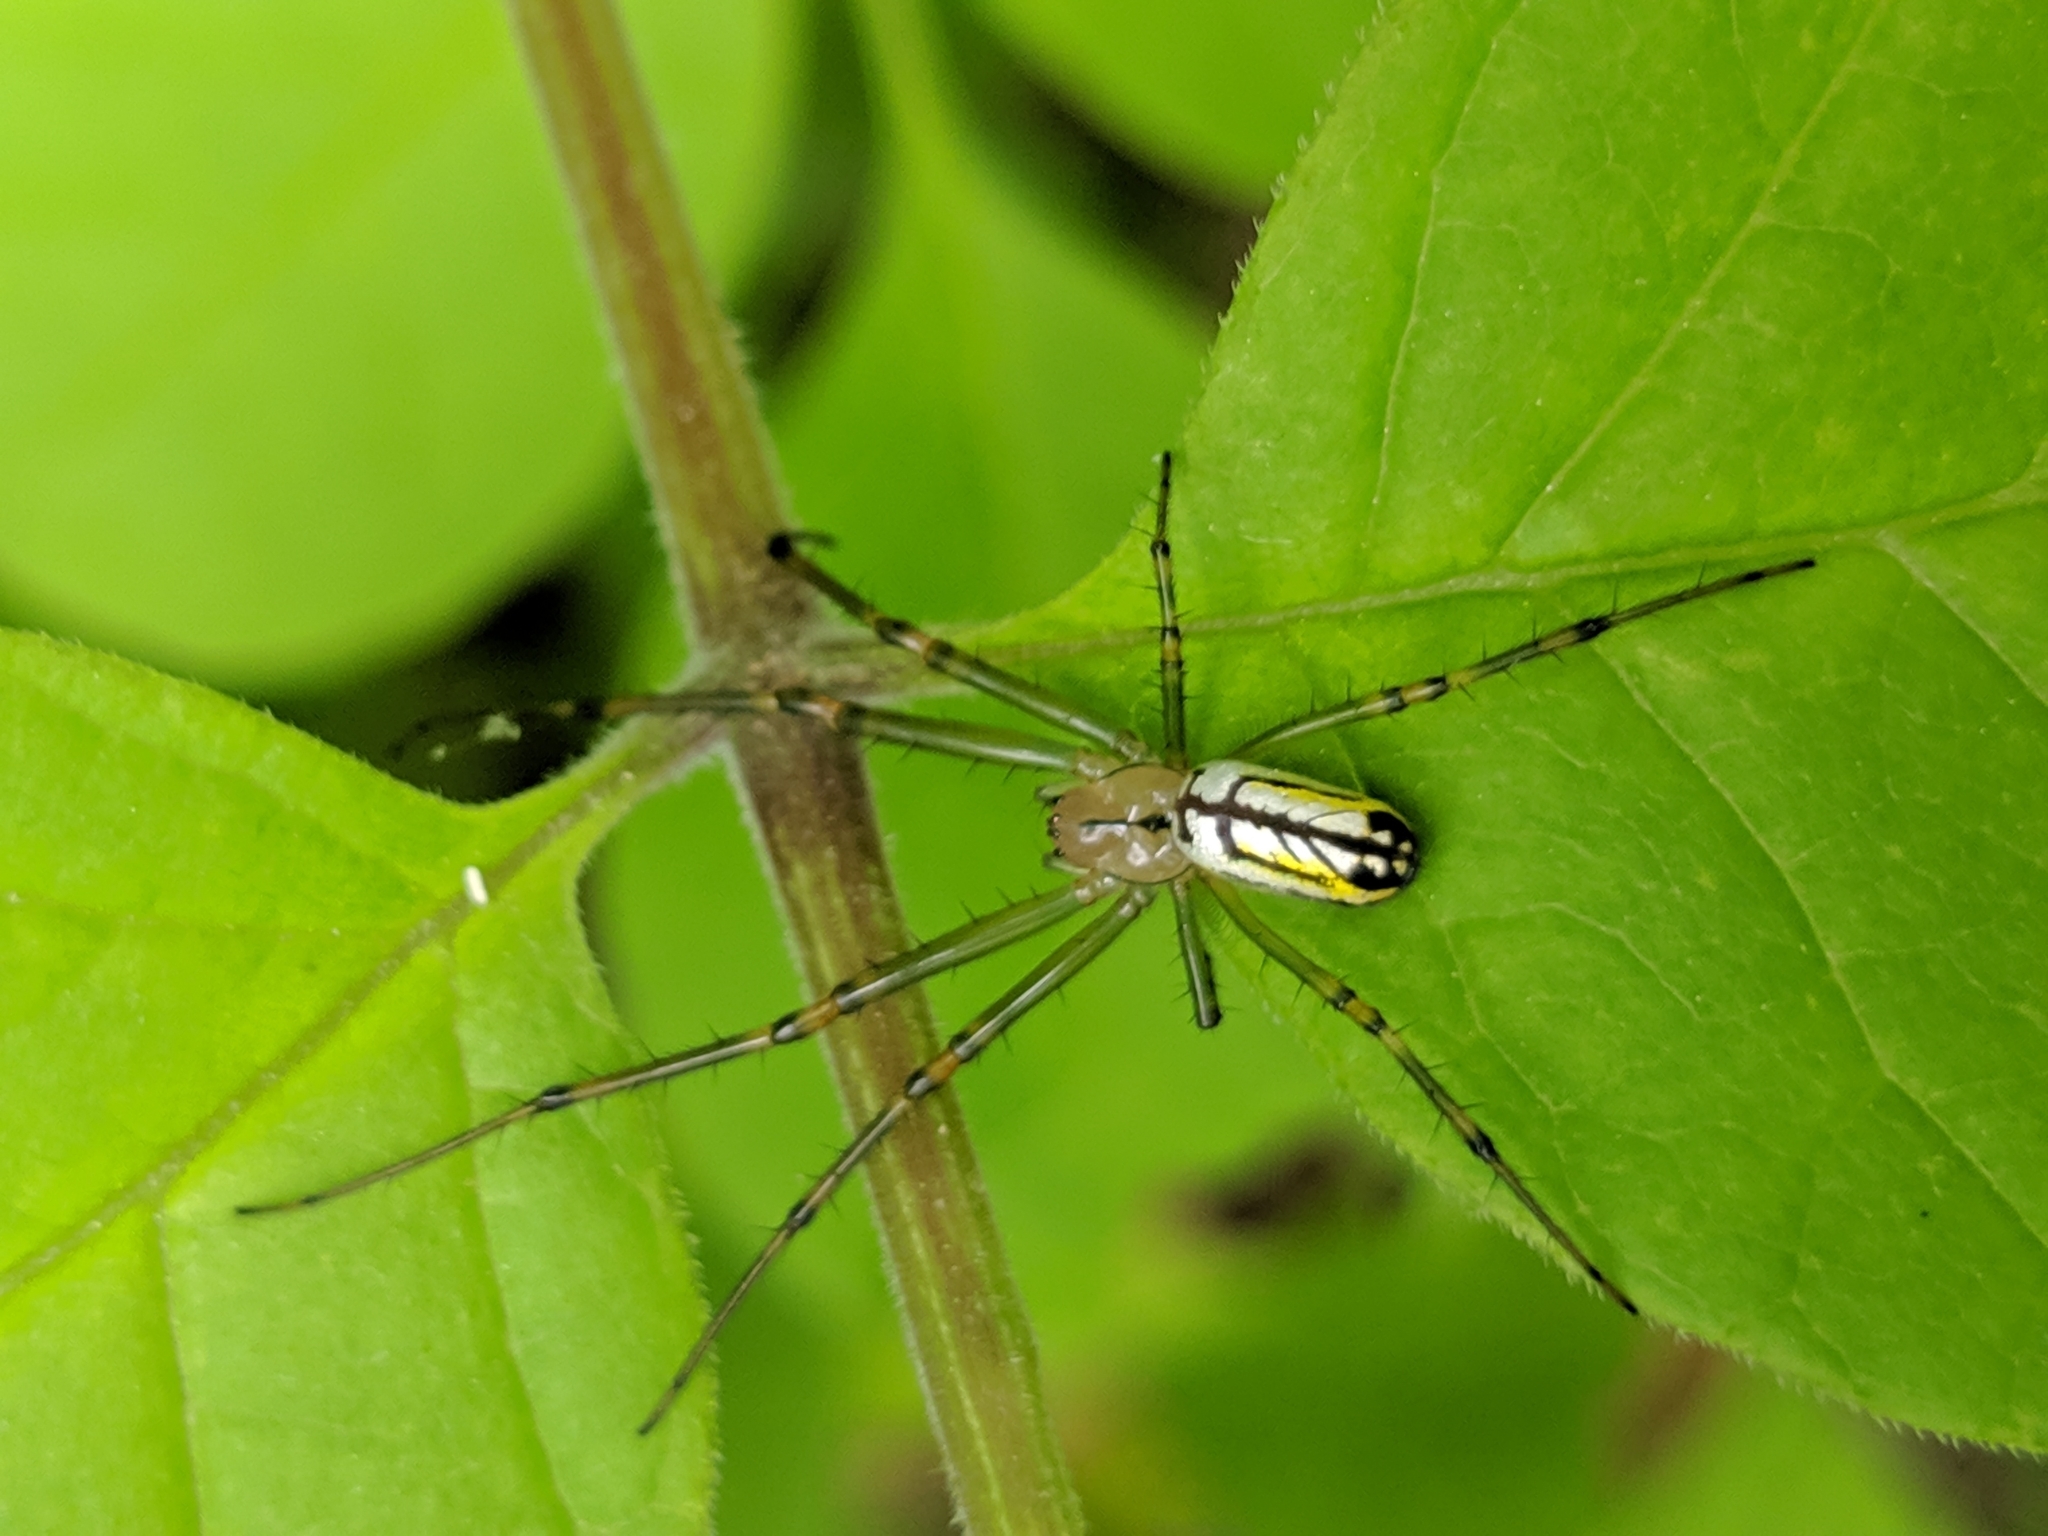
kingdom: Animalia
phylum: Arthropoda
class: Arachnida
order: Araneae
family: Tetragnathidae
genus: Leucauge
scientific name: Leucauge venusta
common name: Longjawed orb weavers
